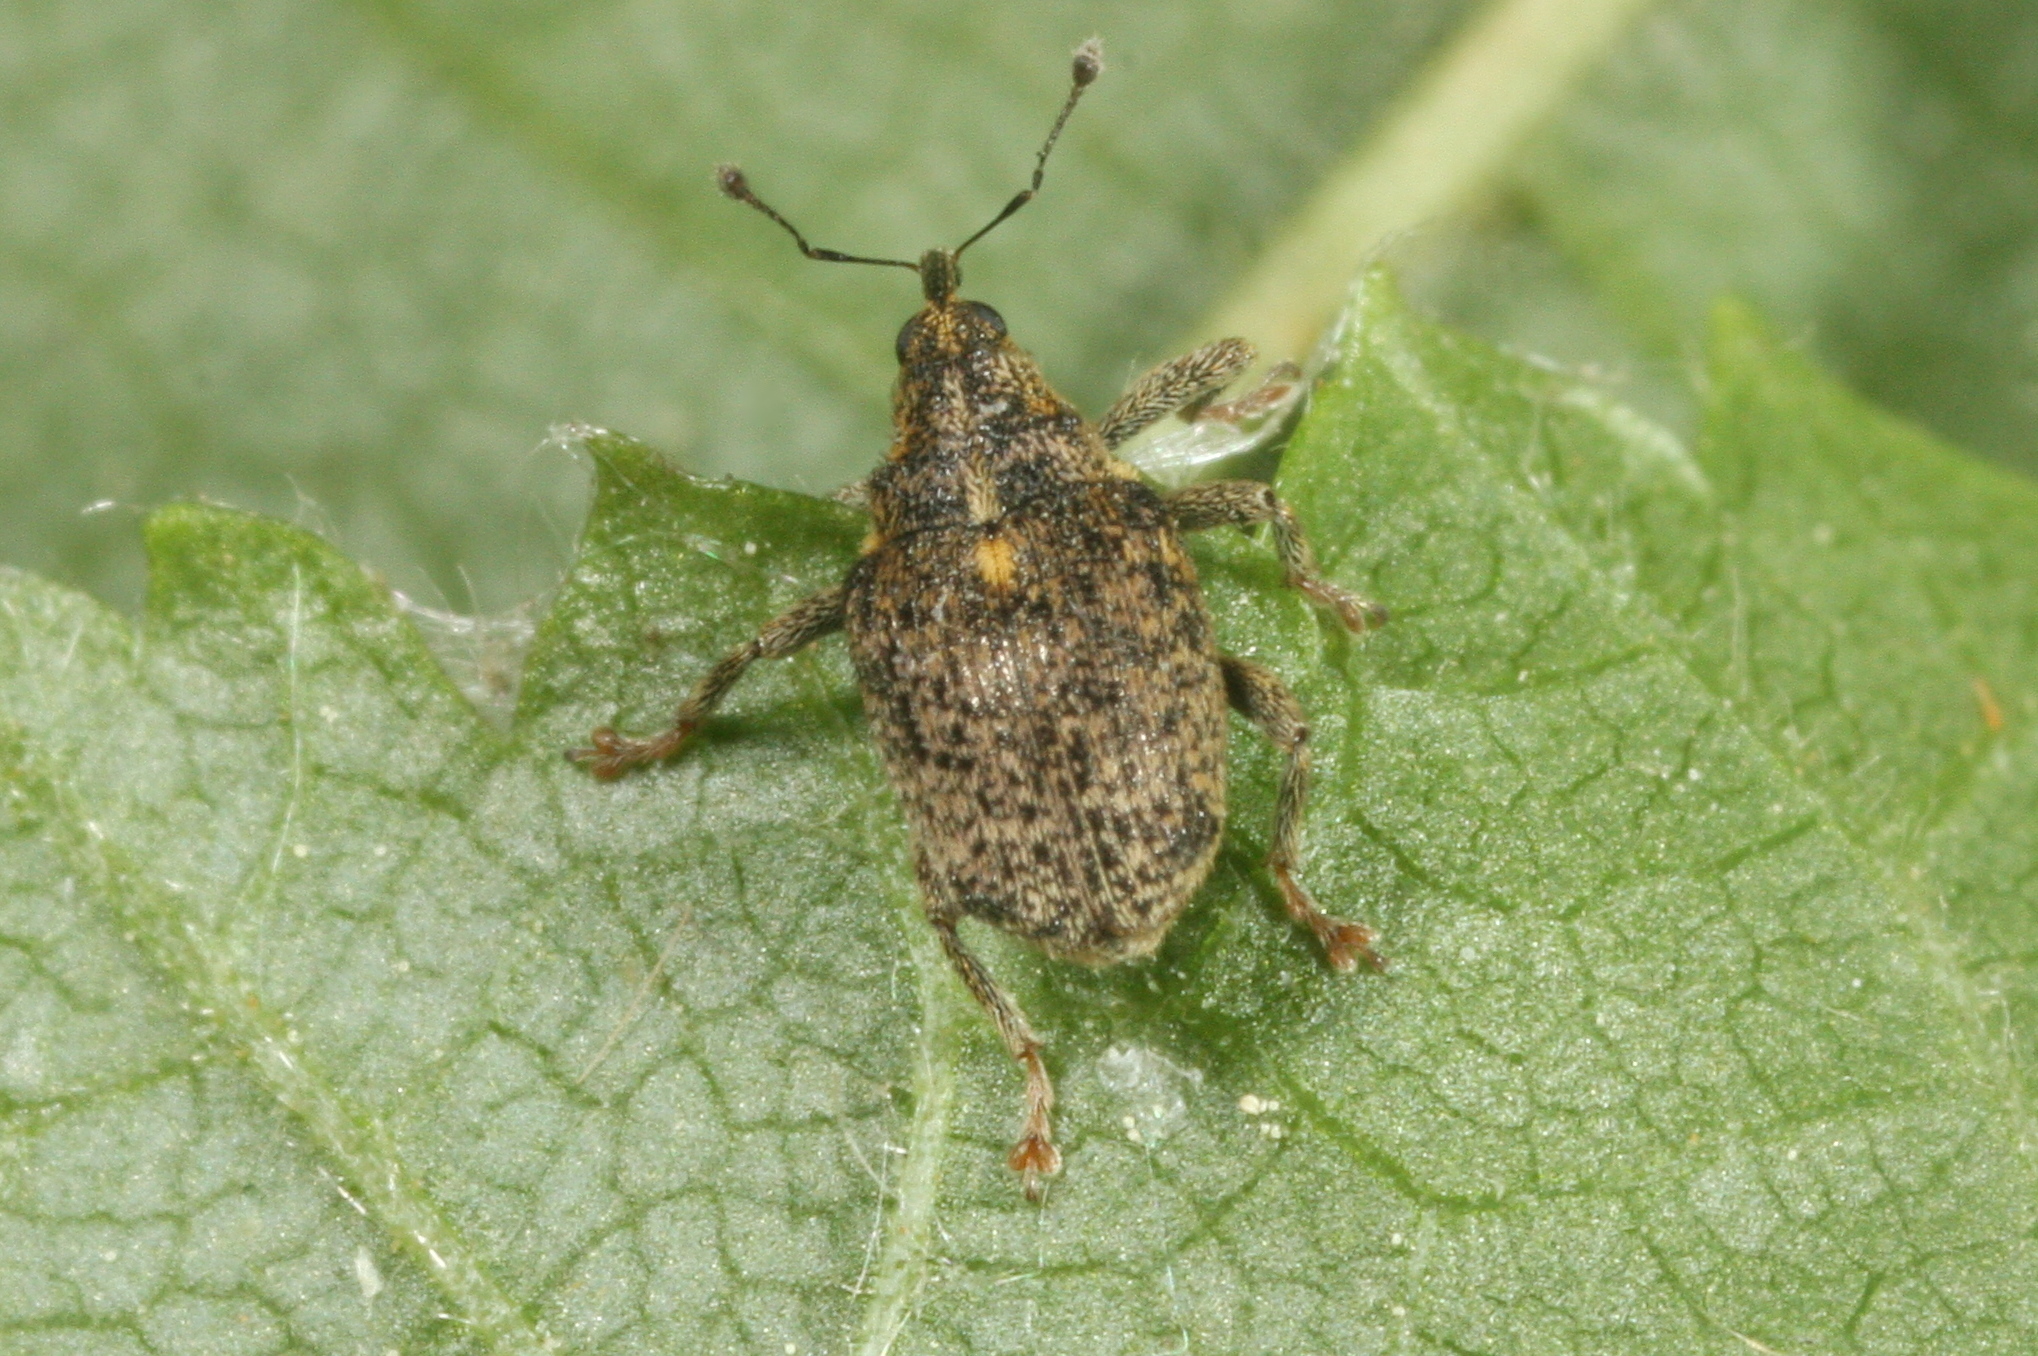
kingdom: Animalia
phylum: Arthropoda
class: Insecta
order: Coleoptera
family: Curculionidae
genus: Ceutorhynchus
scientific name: Ceutorhynchus pallidactylus
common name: Cabbage stem weavil
